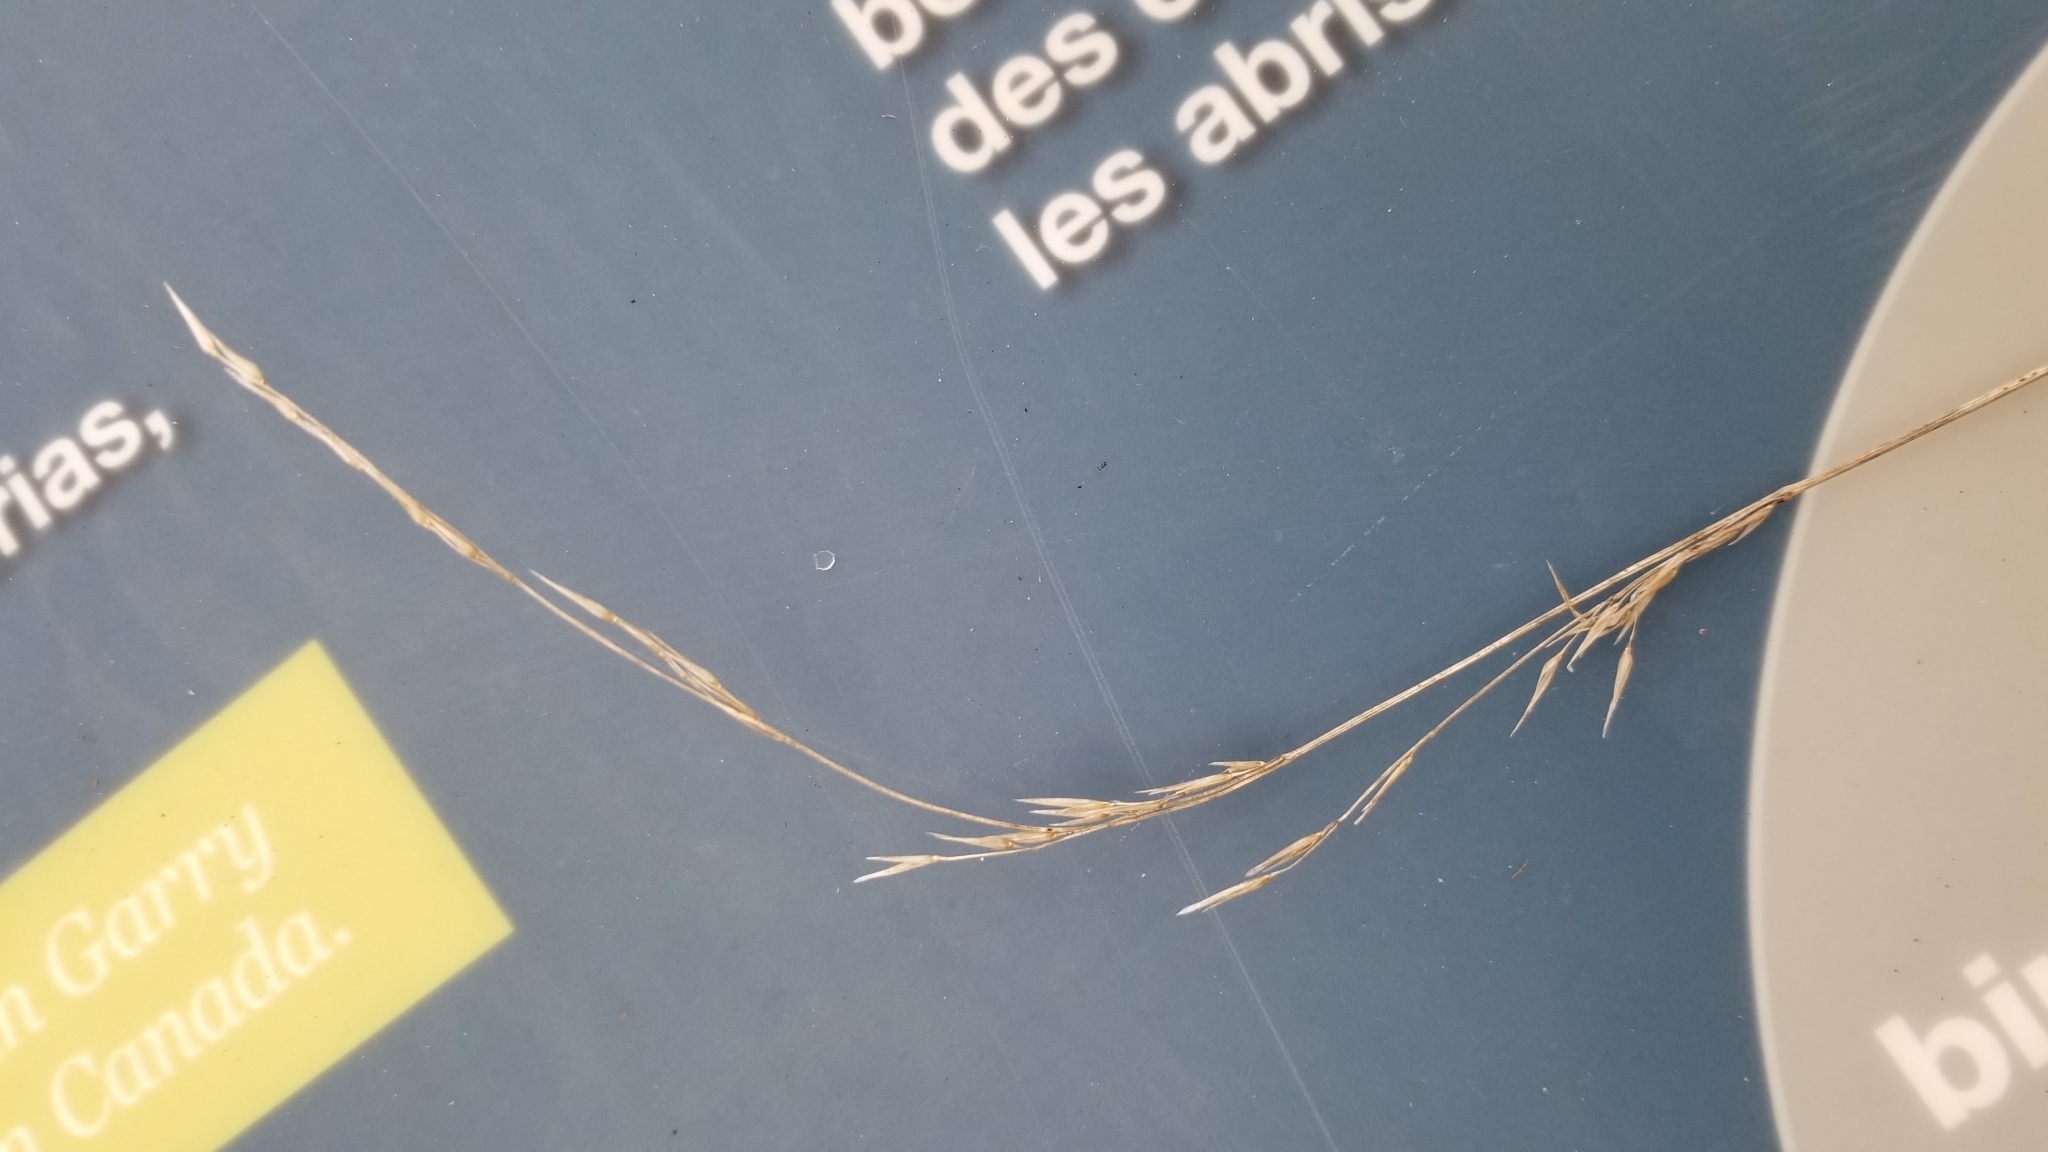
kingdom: Plantae
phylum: Tracheophyta
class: Liliopsida
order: Poales
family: Poaceae
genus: Melica
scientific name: Melica subulata
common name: Tapered oniongrass
